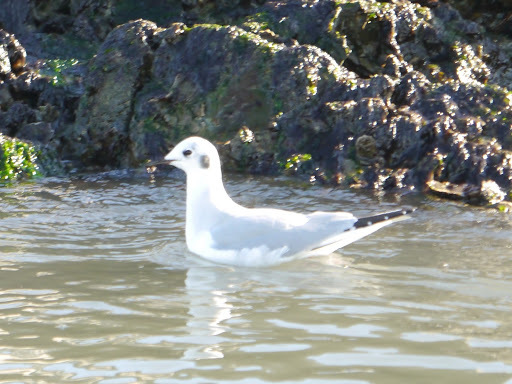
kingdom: Animalia
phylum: Chordata
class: Aves
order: Charadriiformes
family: Laridae
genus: Chroicocephalus
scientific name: Chroicocephalus philadelphia
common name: Bonaparte's gull
